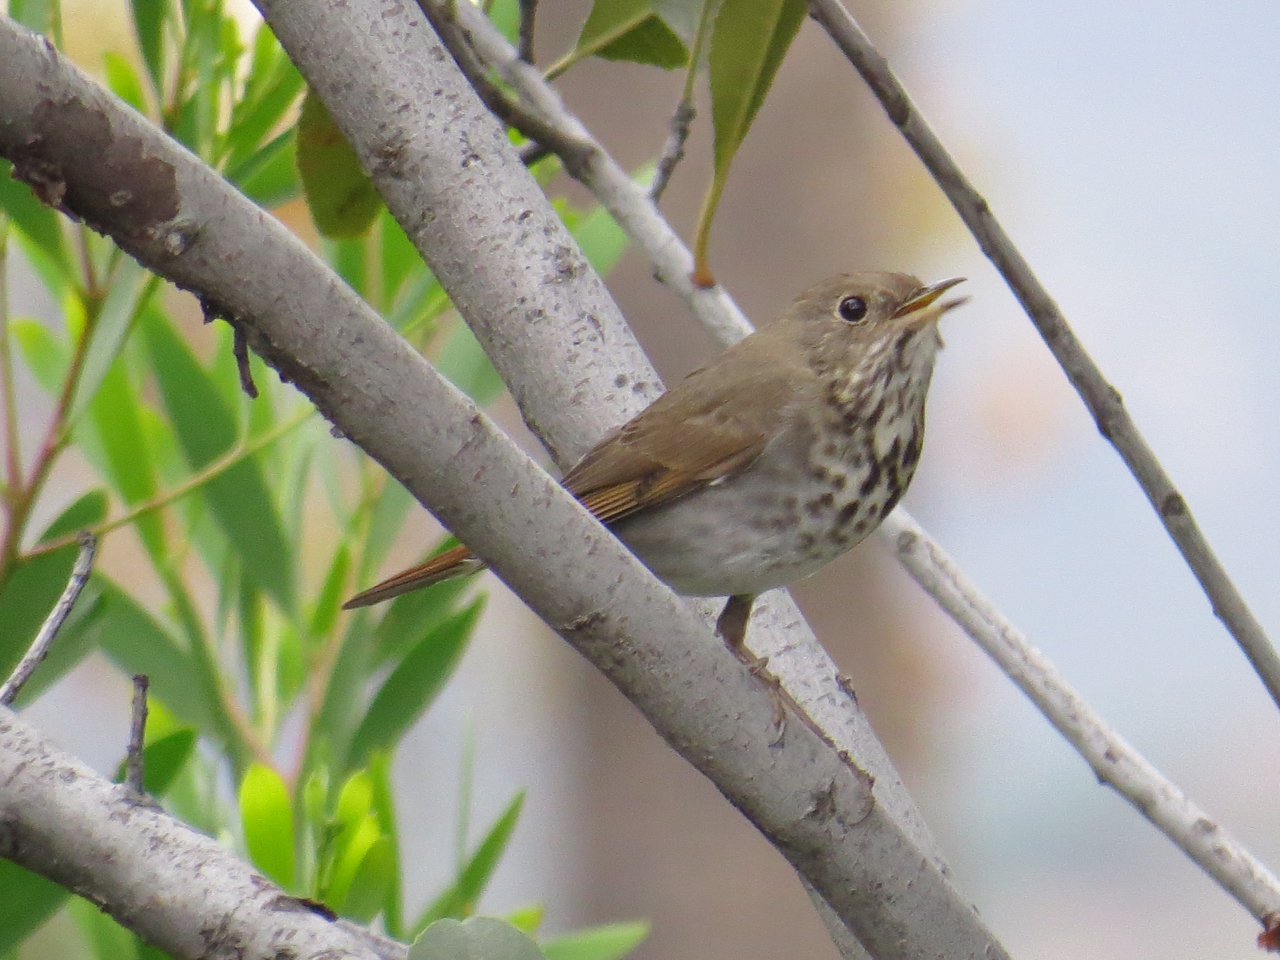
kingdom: Animalia
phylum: Chordata
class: Aves
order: Passeriformes
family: Turdidae
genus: Catharus
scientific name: Catharus guttatus
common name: Hermit thrush
